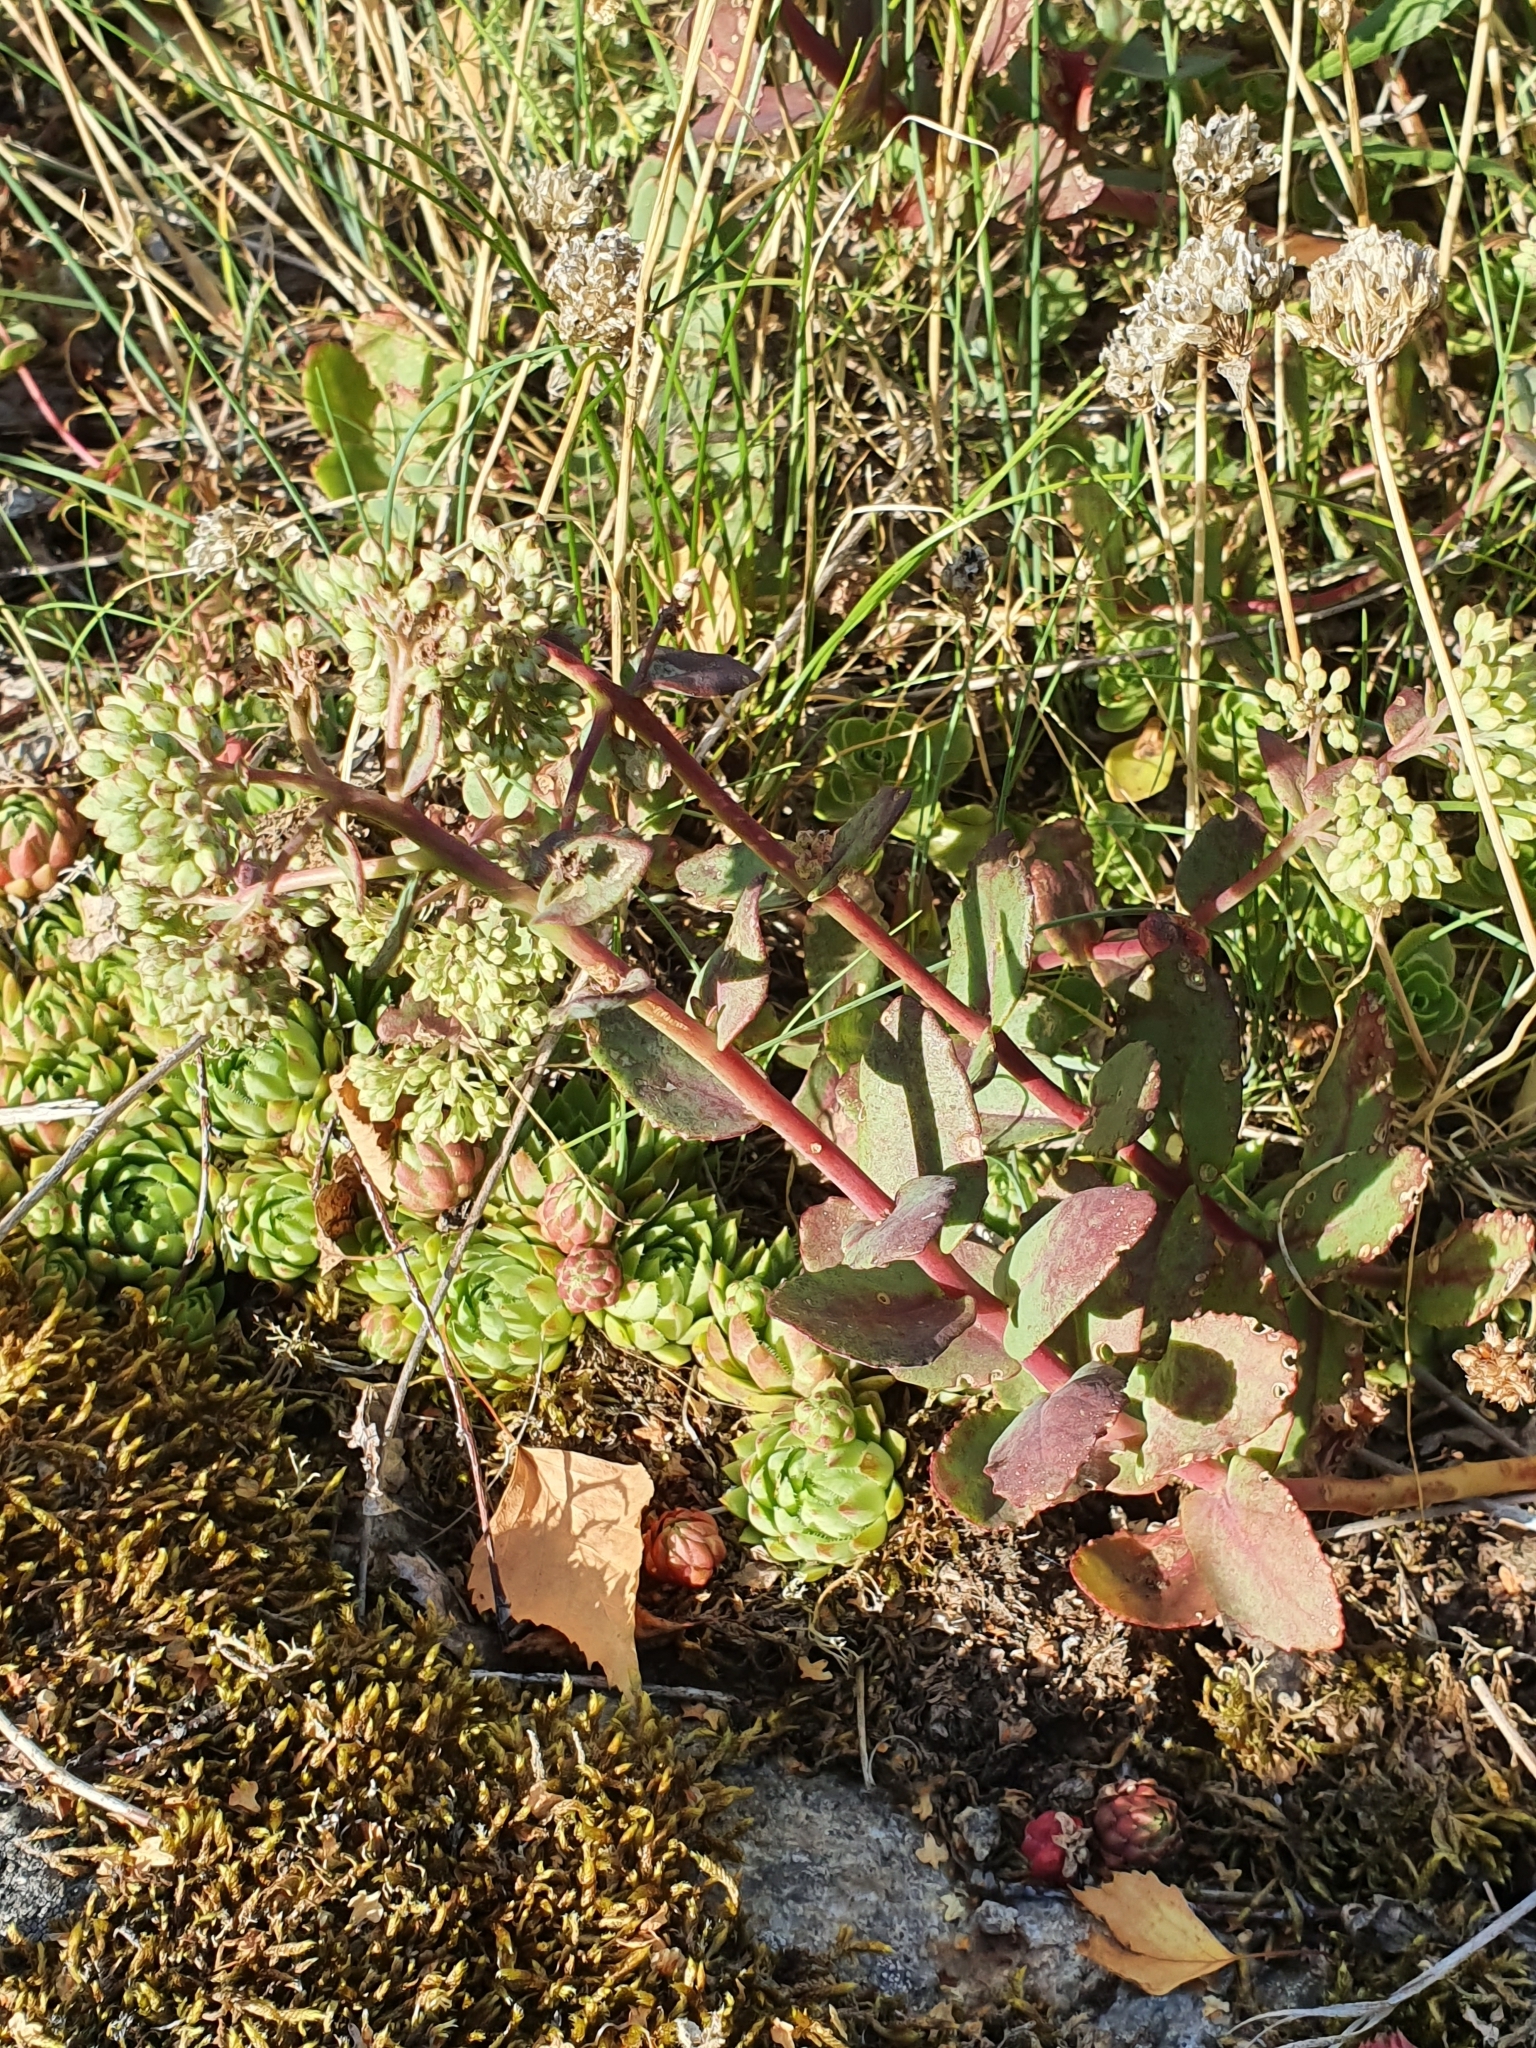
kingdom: Plantae
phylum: Tracheophyta
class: Magnoliopsida
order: Saxifragales
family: Crassulaceae
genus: Hylotelephium
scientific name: Hylotelephium maximum
